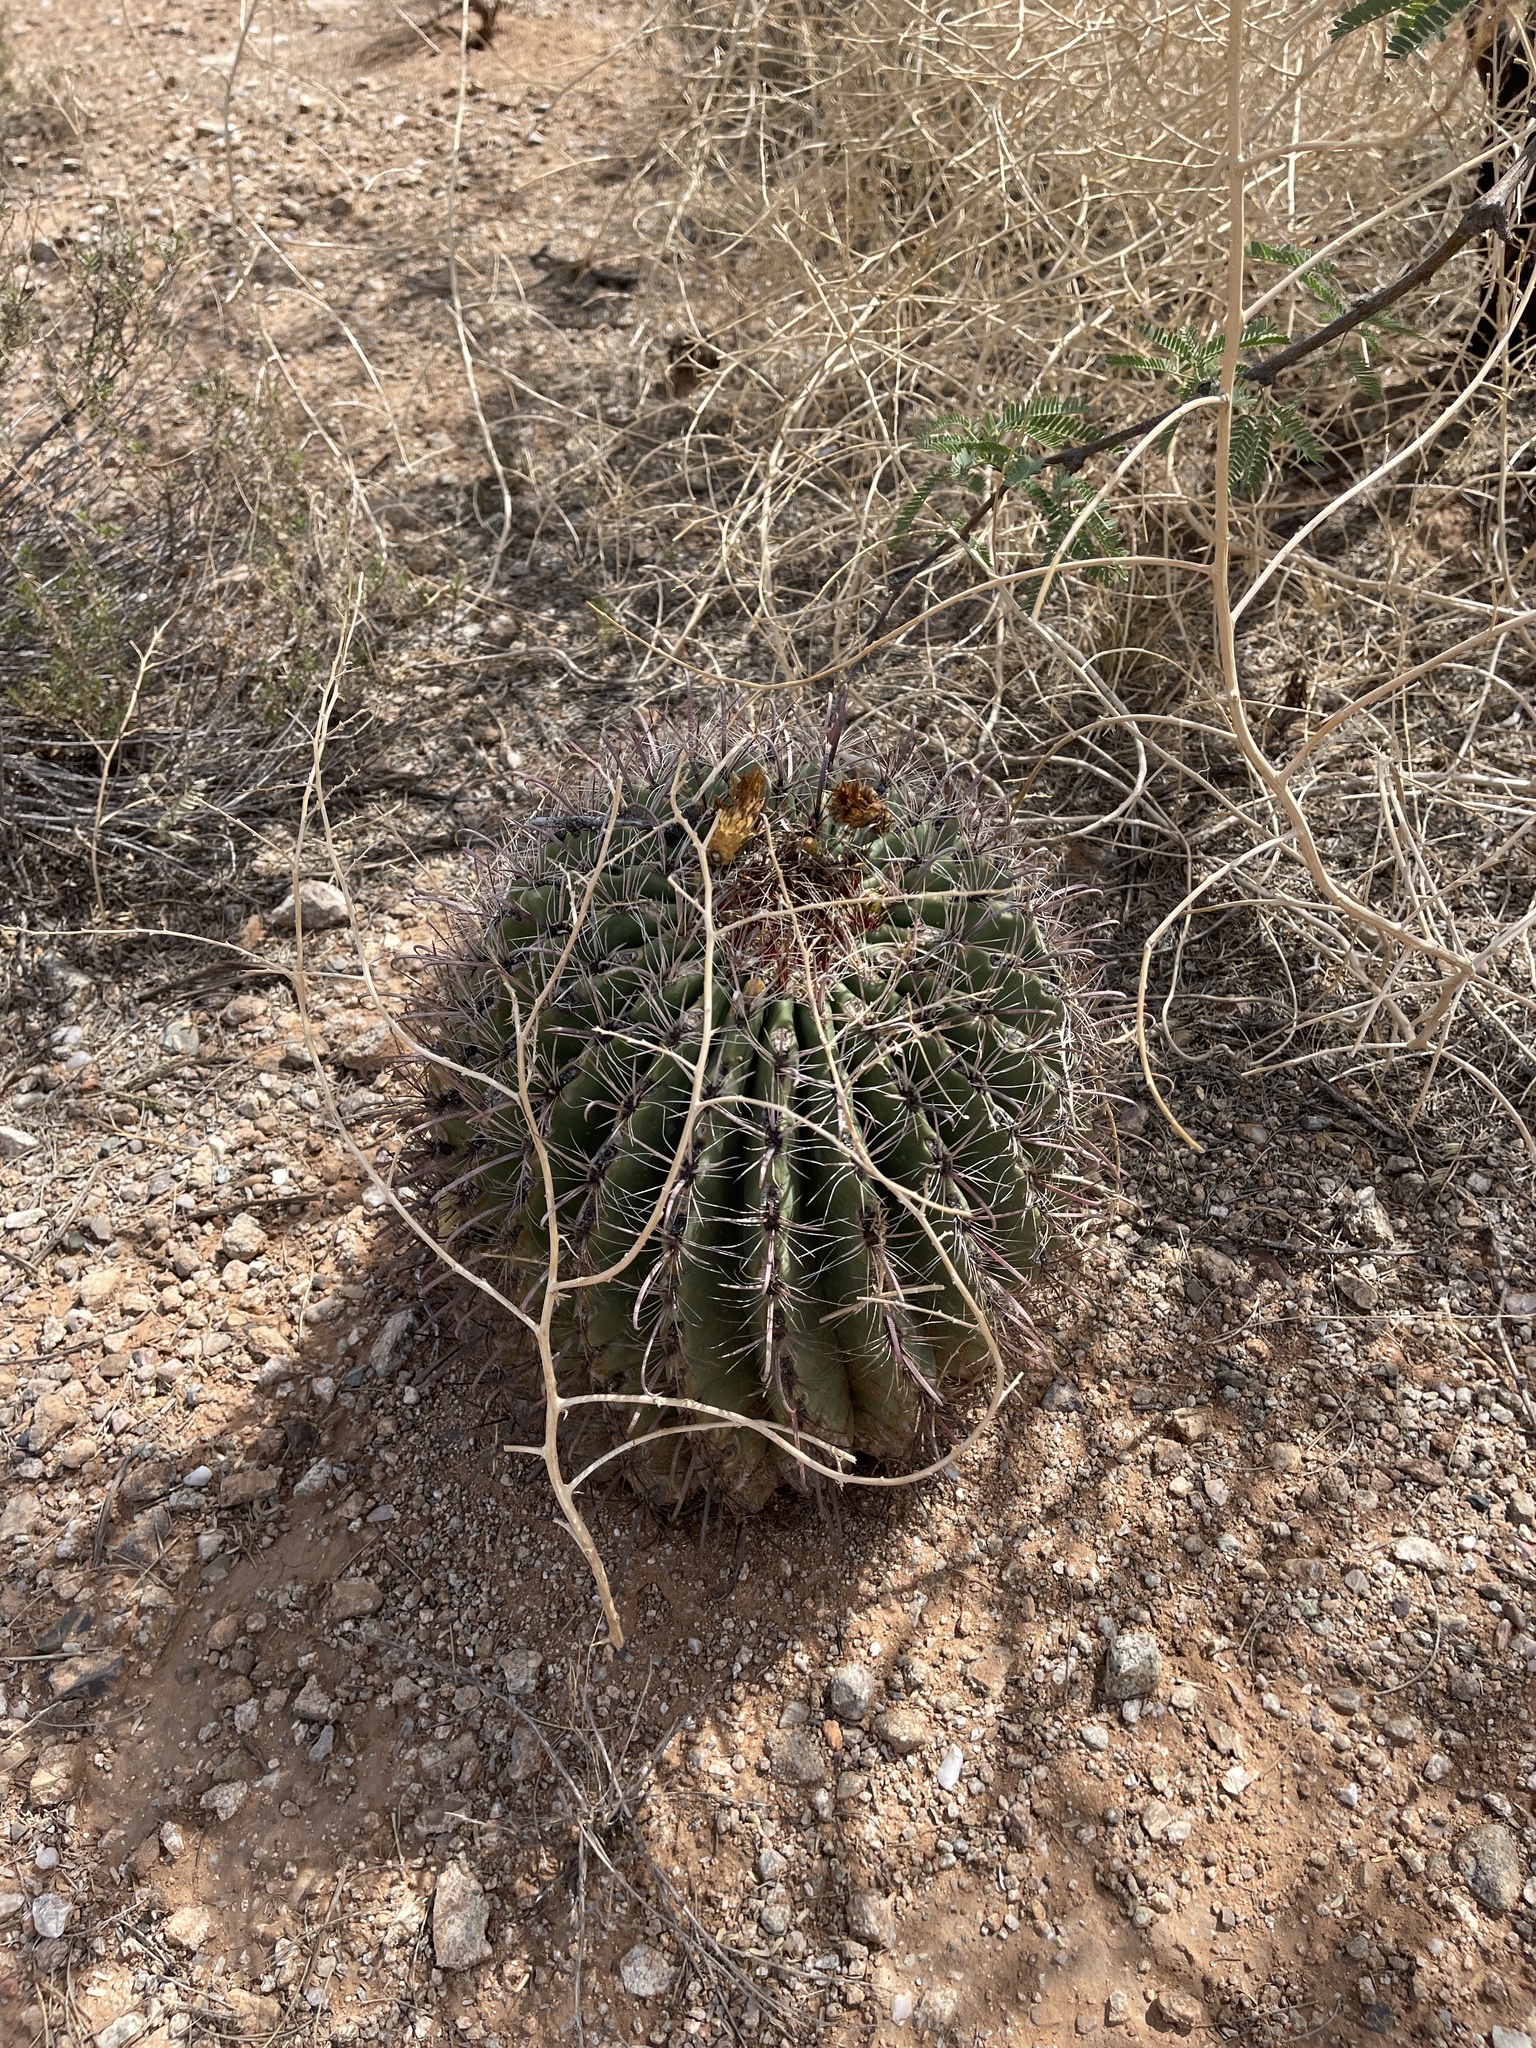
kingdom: Plantae
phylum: Tracheophyta
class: Magnoliopsida
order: Caryophyllales
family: Cactaceae
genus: Ferocactus
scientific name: Ferocactus wislizeni
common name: Candy barrel cactus
